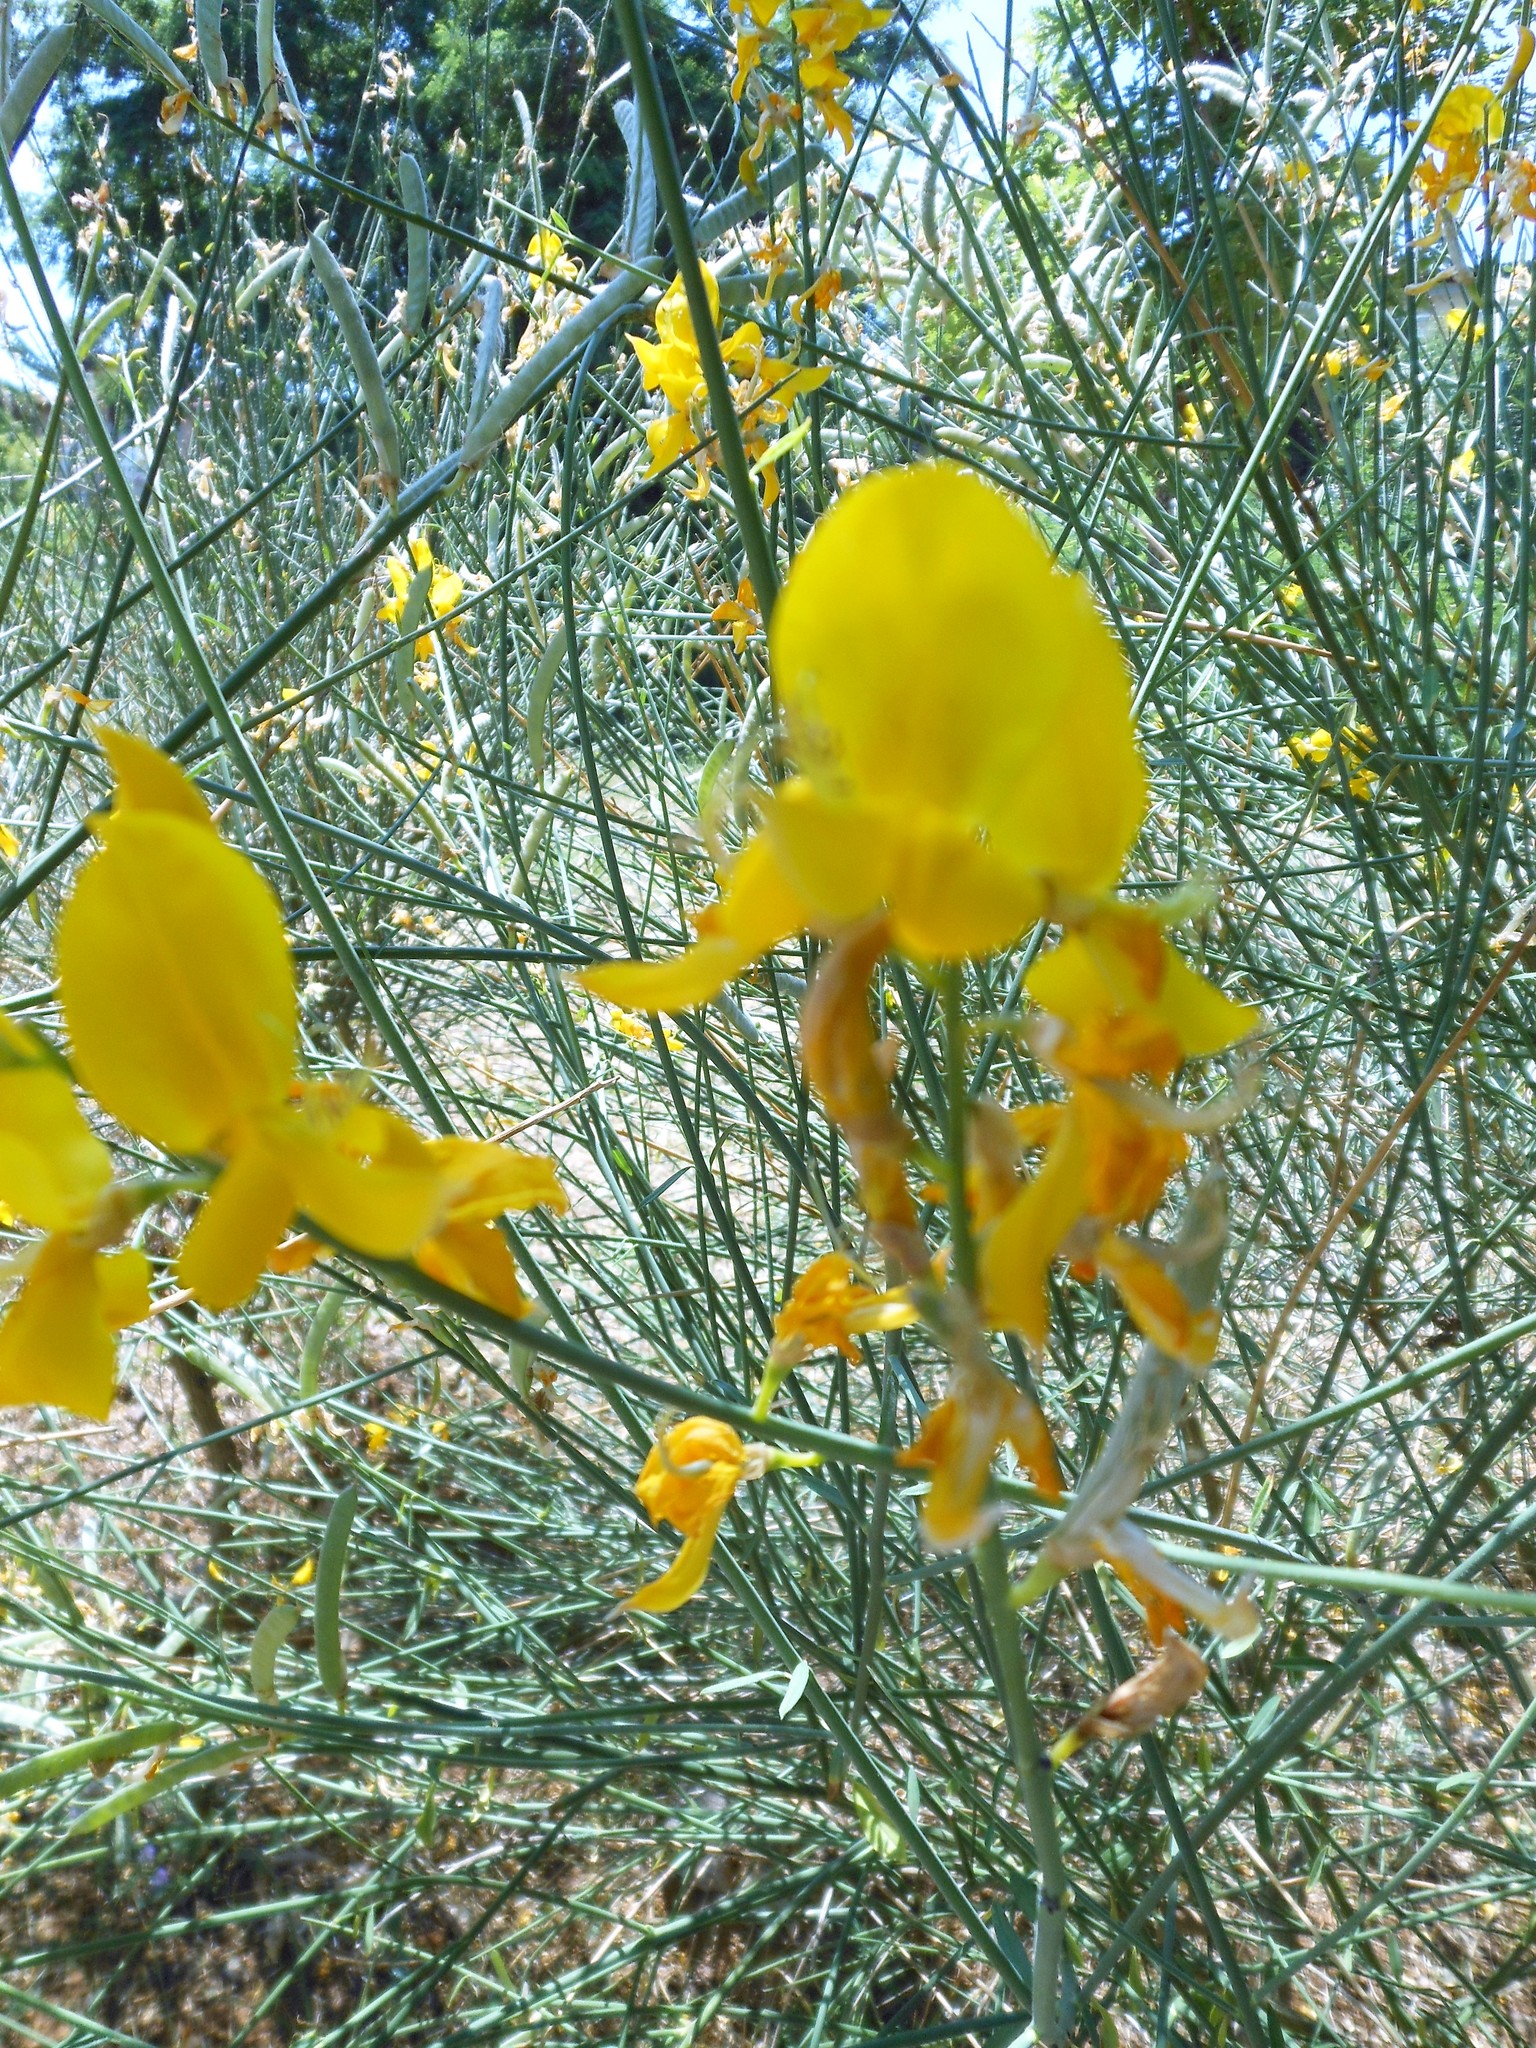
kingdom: Plantae
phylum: Tracheophyta
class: Magnoliopsida
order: Fabales
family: Fabaceae
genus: Spartium
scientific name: Spartium junceum
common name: Spanish broom
